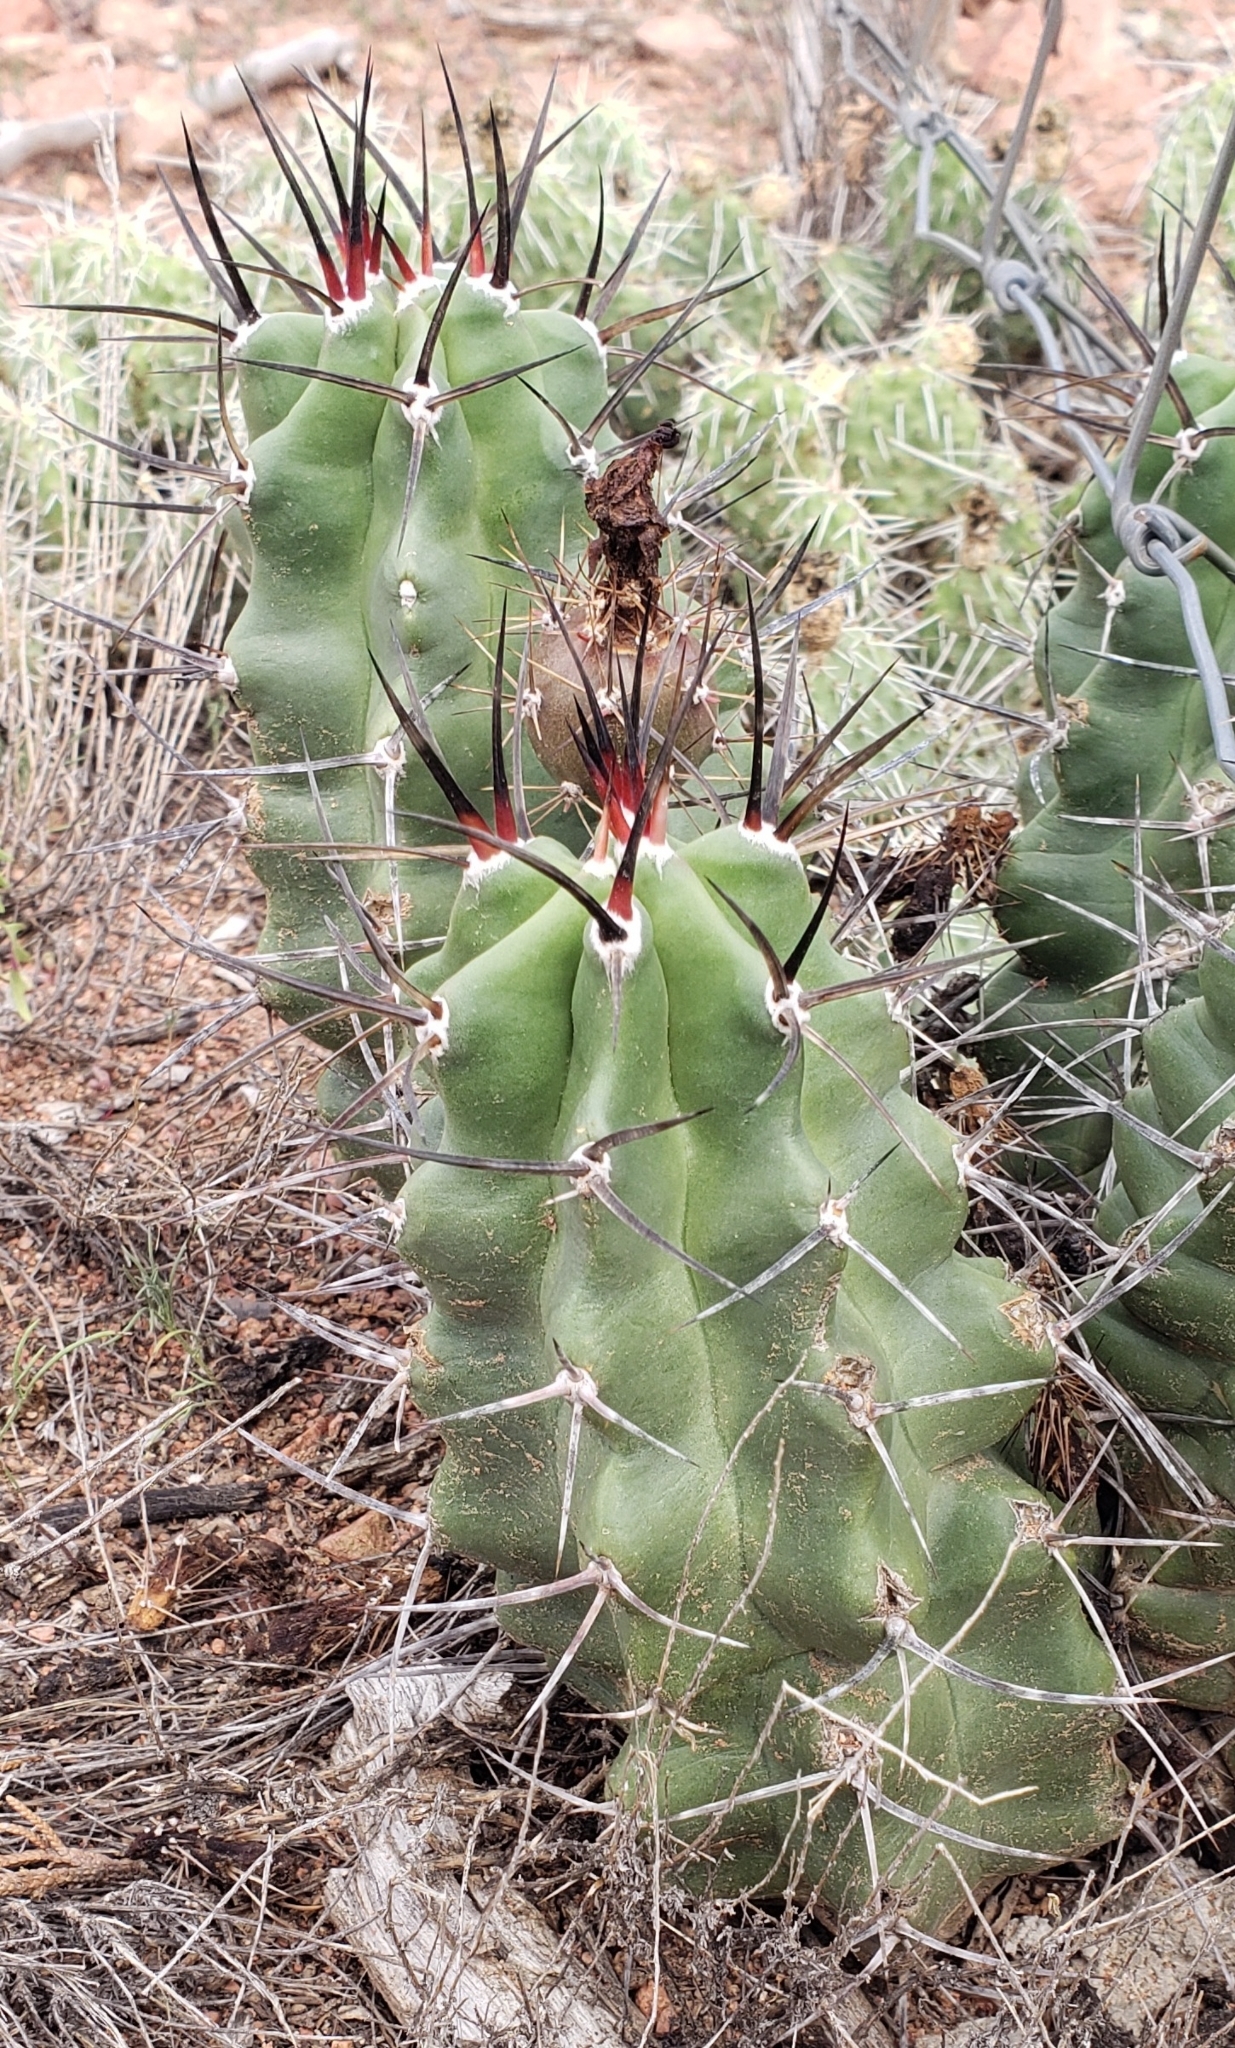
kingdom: Plantae
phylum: Tracheophyta
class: Magnoliopsida
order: Caryophyllales
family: Cactaceae
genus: Echinocereus
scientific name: Echinocereus triglochidiatus
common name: Claretcup hedgehog
